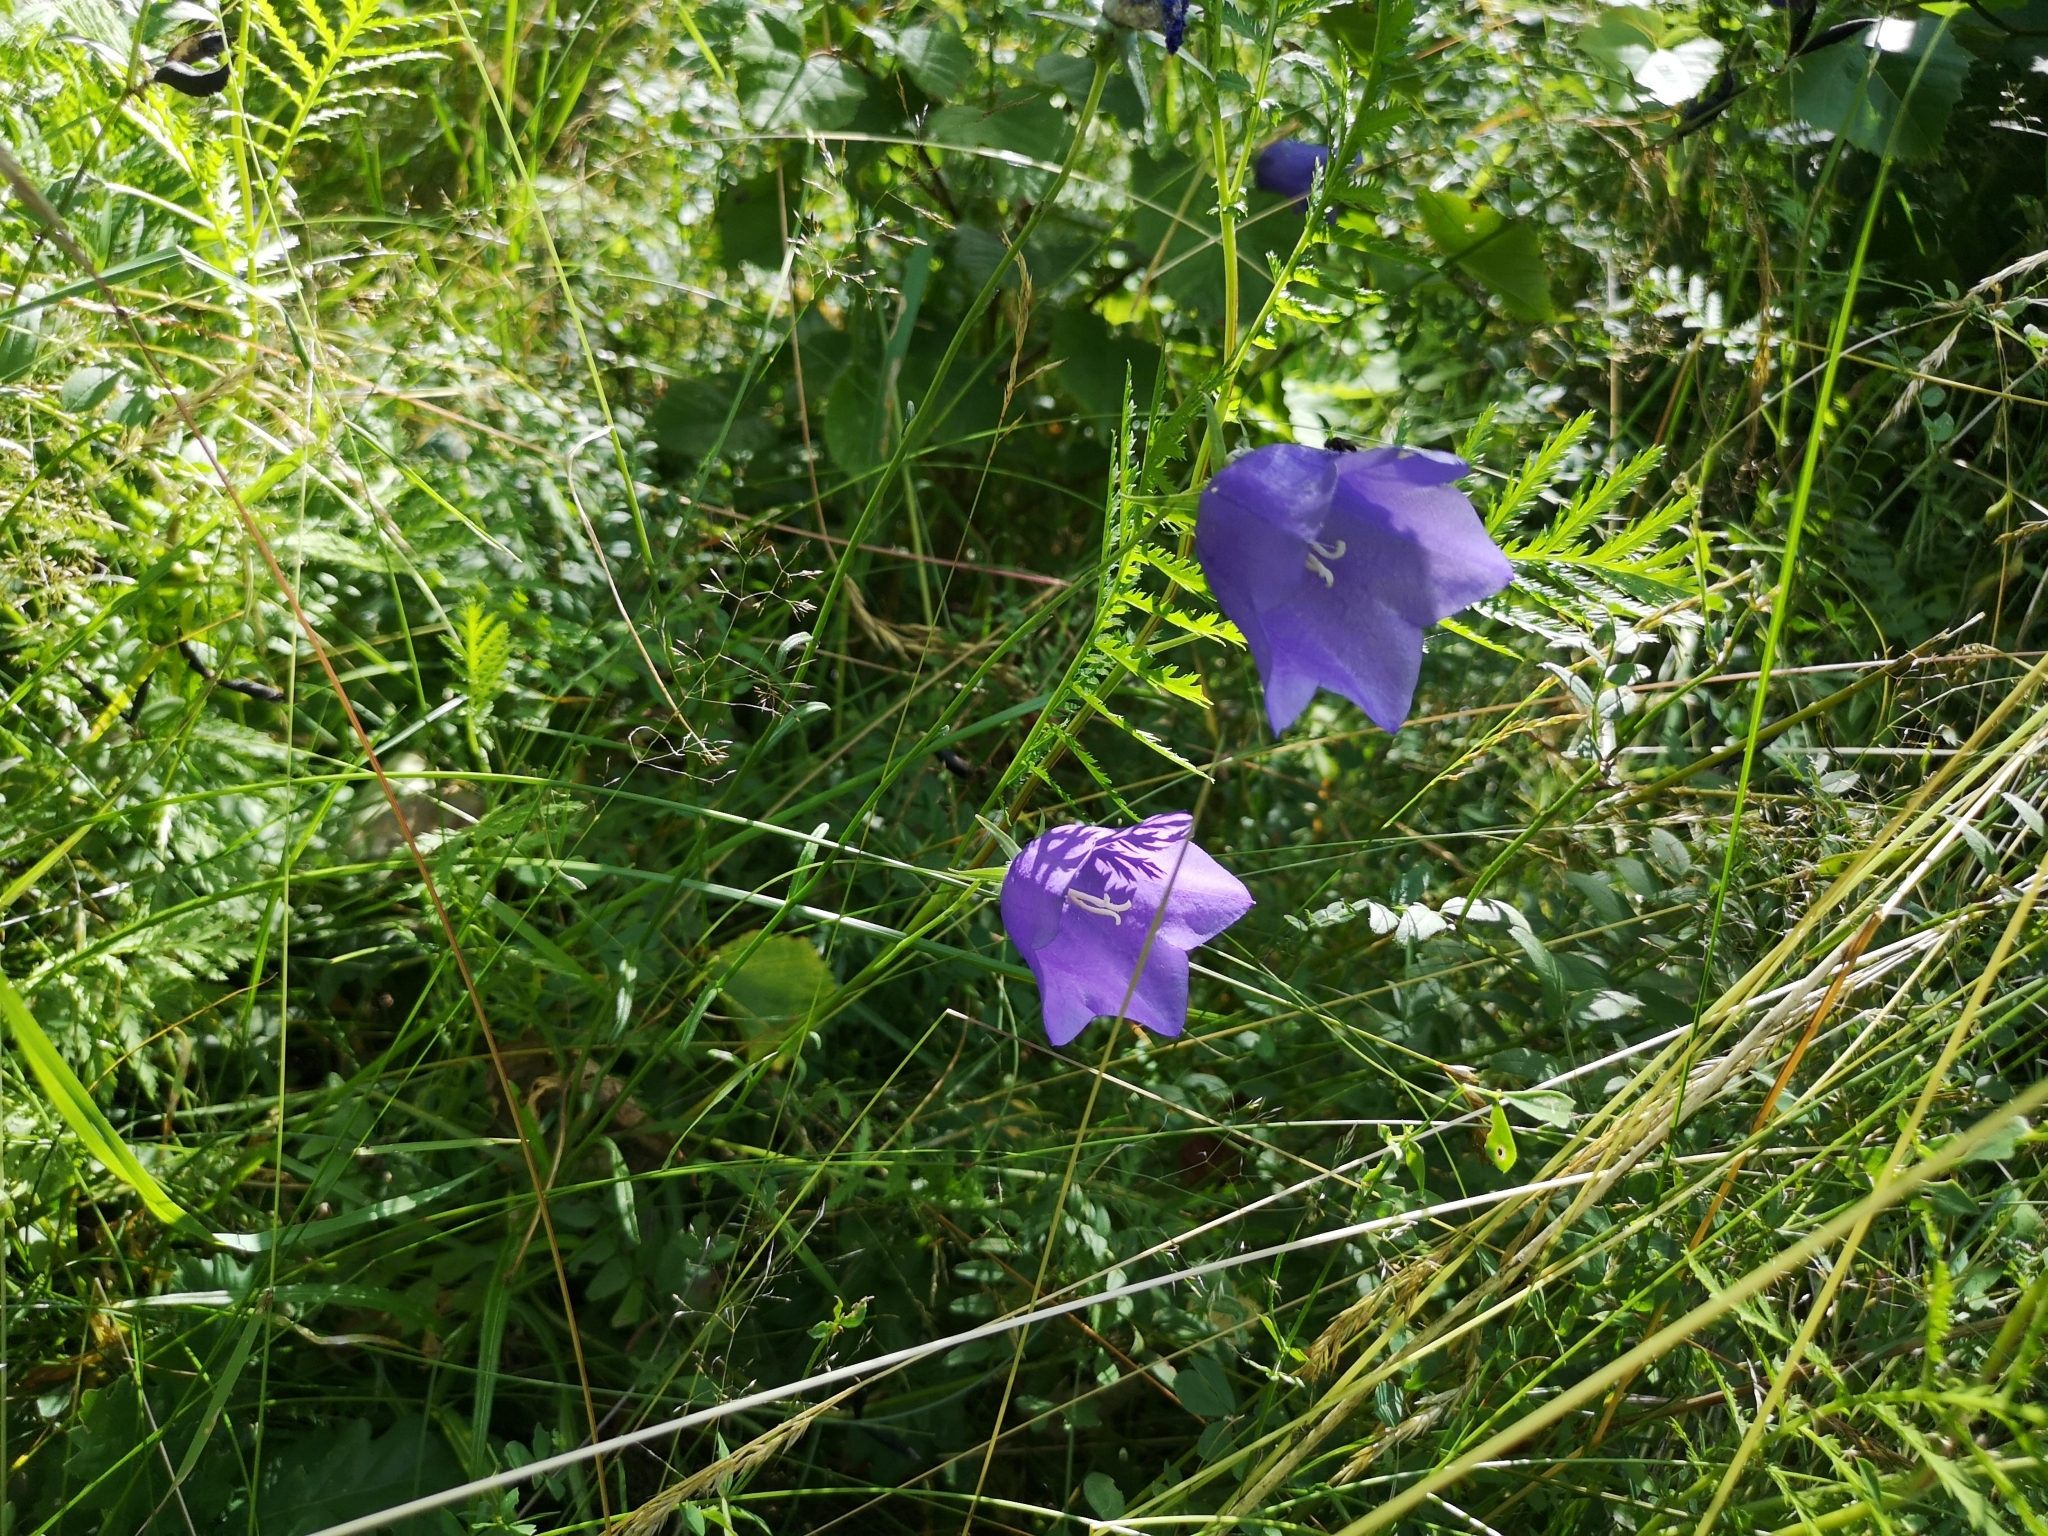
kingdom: Plantae
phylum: Tracheophyta
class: Magnoliopsida
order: Asterales
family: Campanulaceae
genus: Campanula
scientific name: Campanula persicifolia
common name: Peach-leaved bellflower
